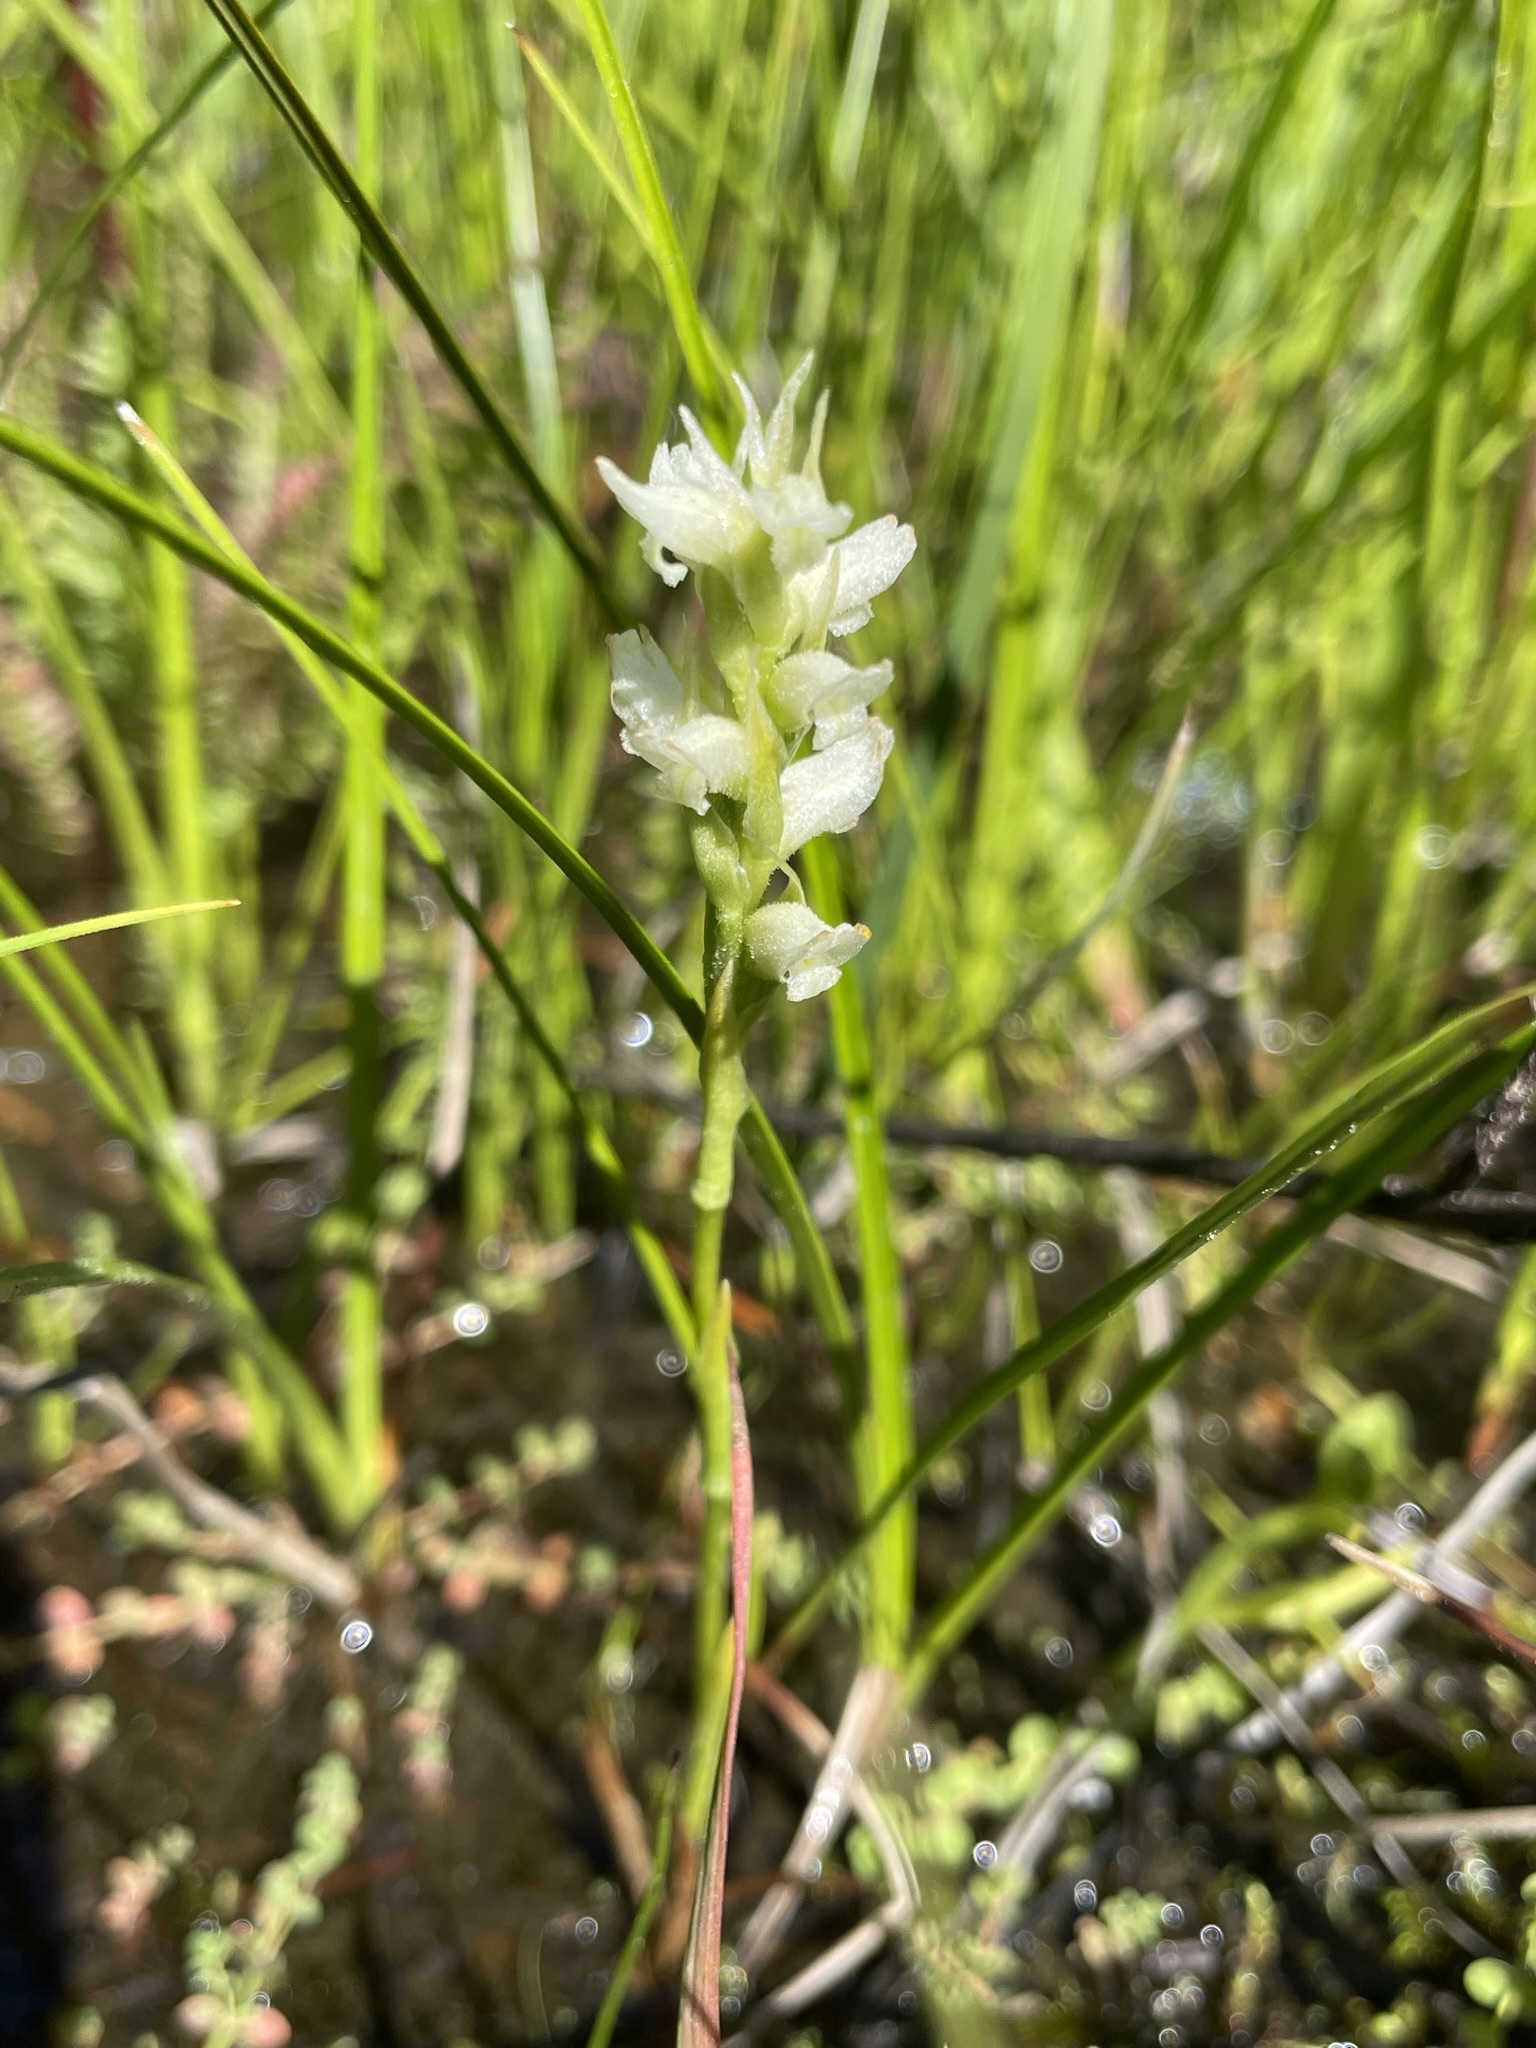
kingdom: Plantae
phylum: Tracheophyta
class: Liliopsida
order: Asparagales
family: Orchidaceae
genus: Spiranthes
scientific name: Spiranthes romanzoffiana
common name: Irish lady's-tresses
